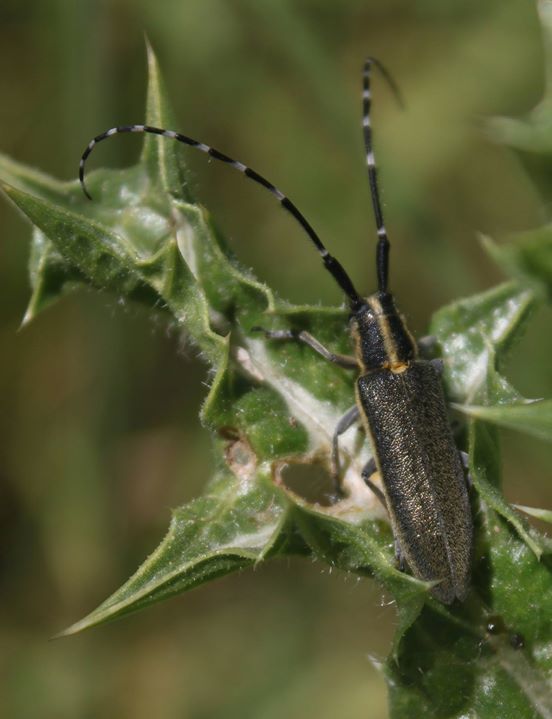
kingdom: Animalia
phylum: Arthropoda
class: Insecta
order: Coleoptera
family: Cerambycidae
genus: Agapanthia
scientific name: Agapanthia cynarae
